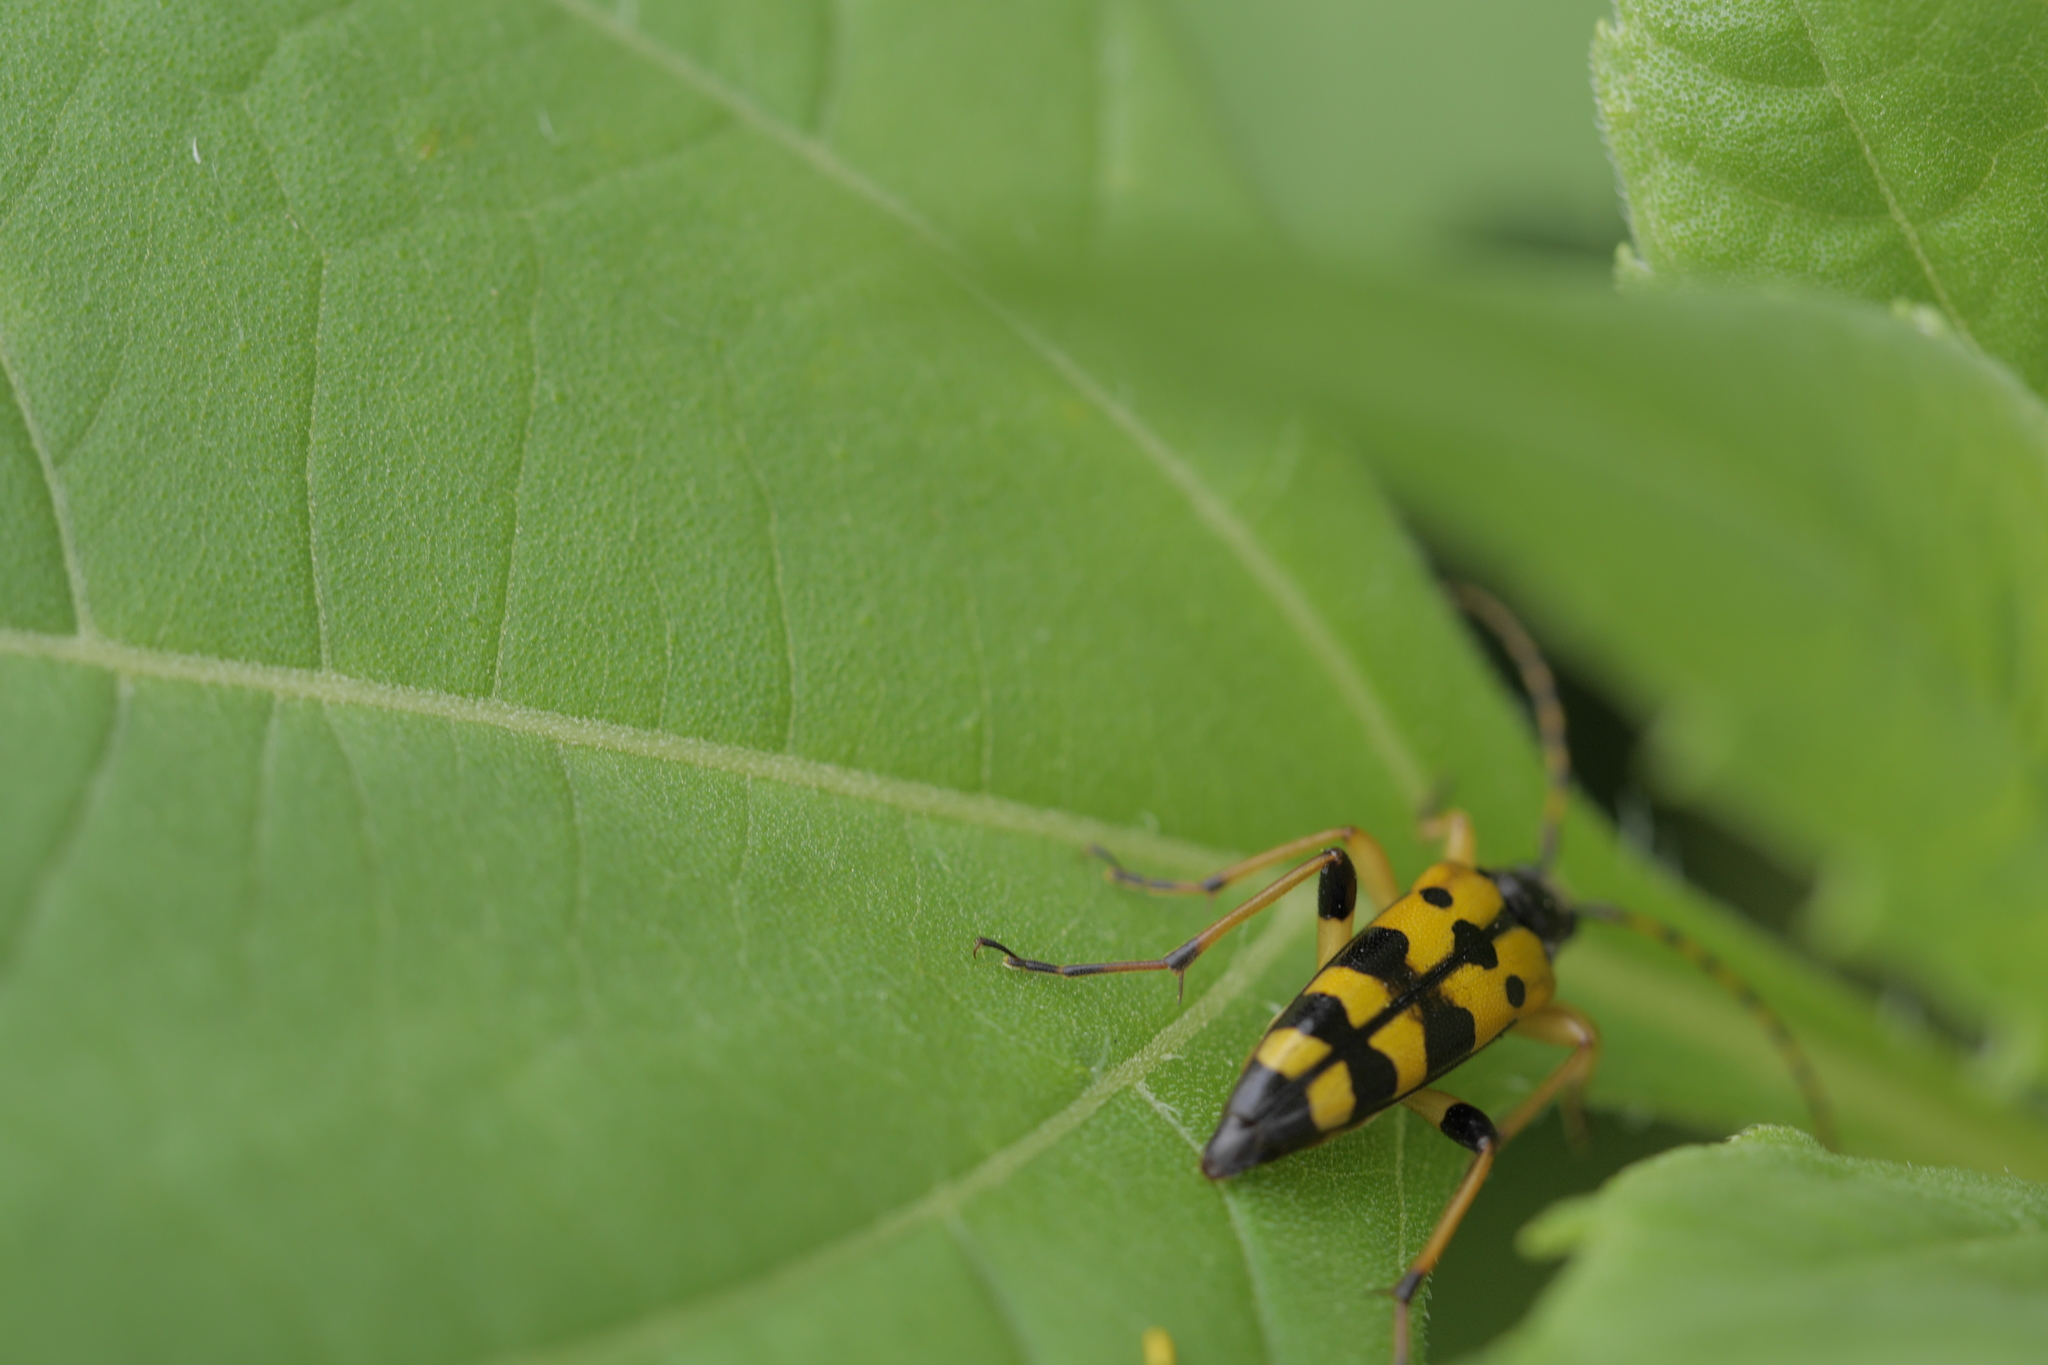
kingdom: Animalia
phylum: Arthropoda
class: Insecta
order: Coleoptera
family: Cerambycidae
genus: Rutpela
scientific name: Rutpela maculata
